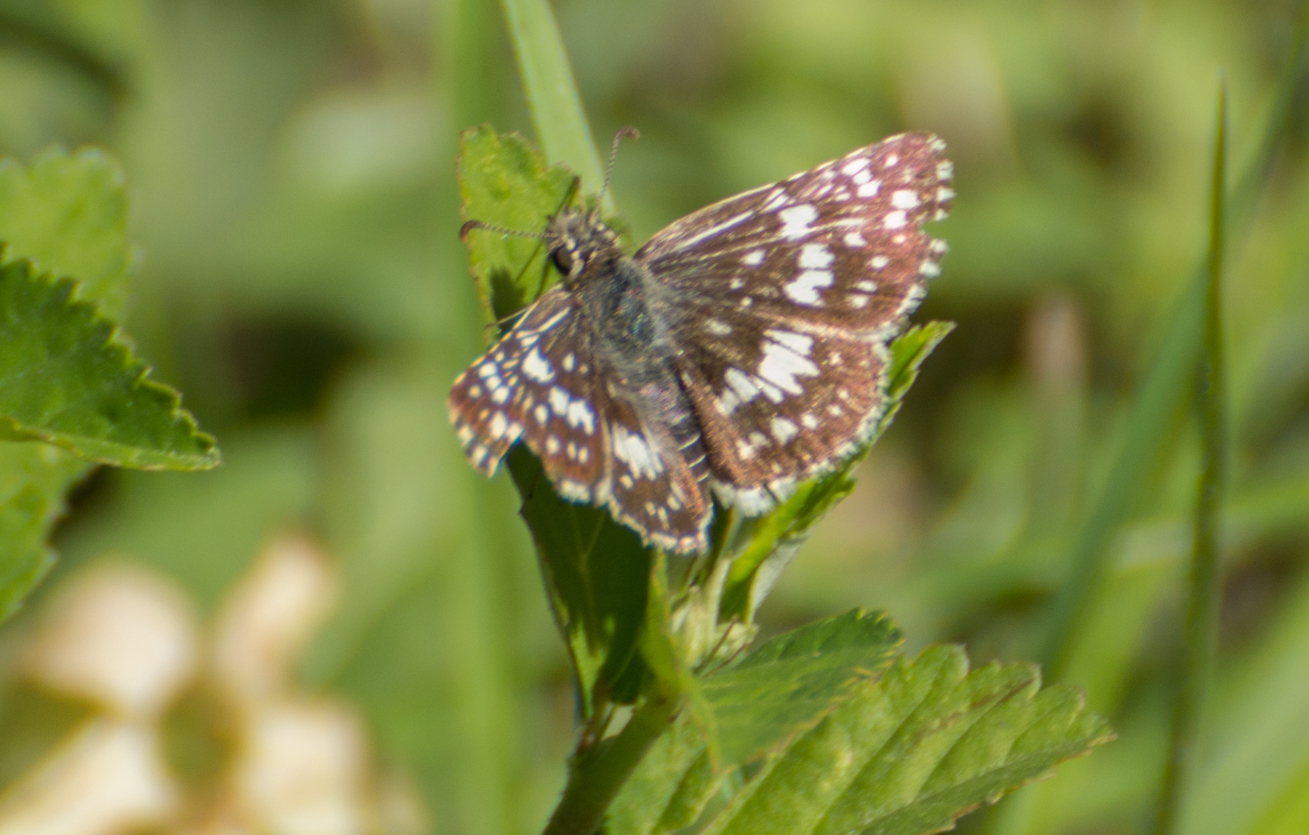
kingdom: Animalia
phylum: Arthropoda
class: Insecta
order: Lepidoptera
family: Hesperiidae
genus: Burnsius
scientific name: Burnsius orcynoides
